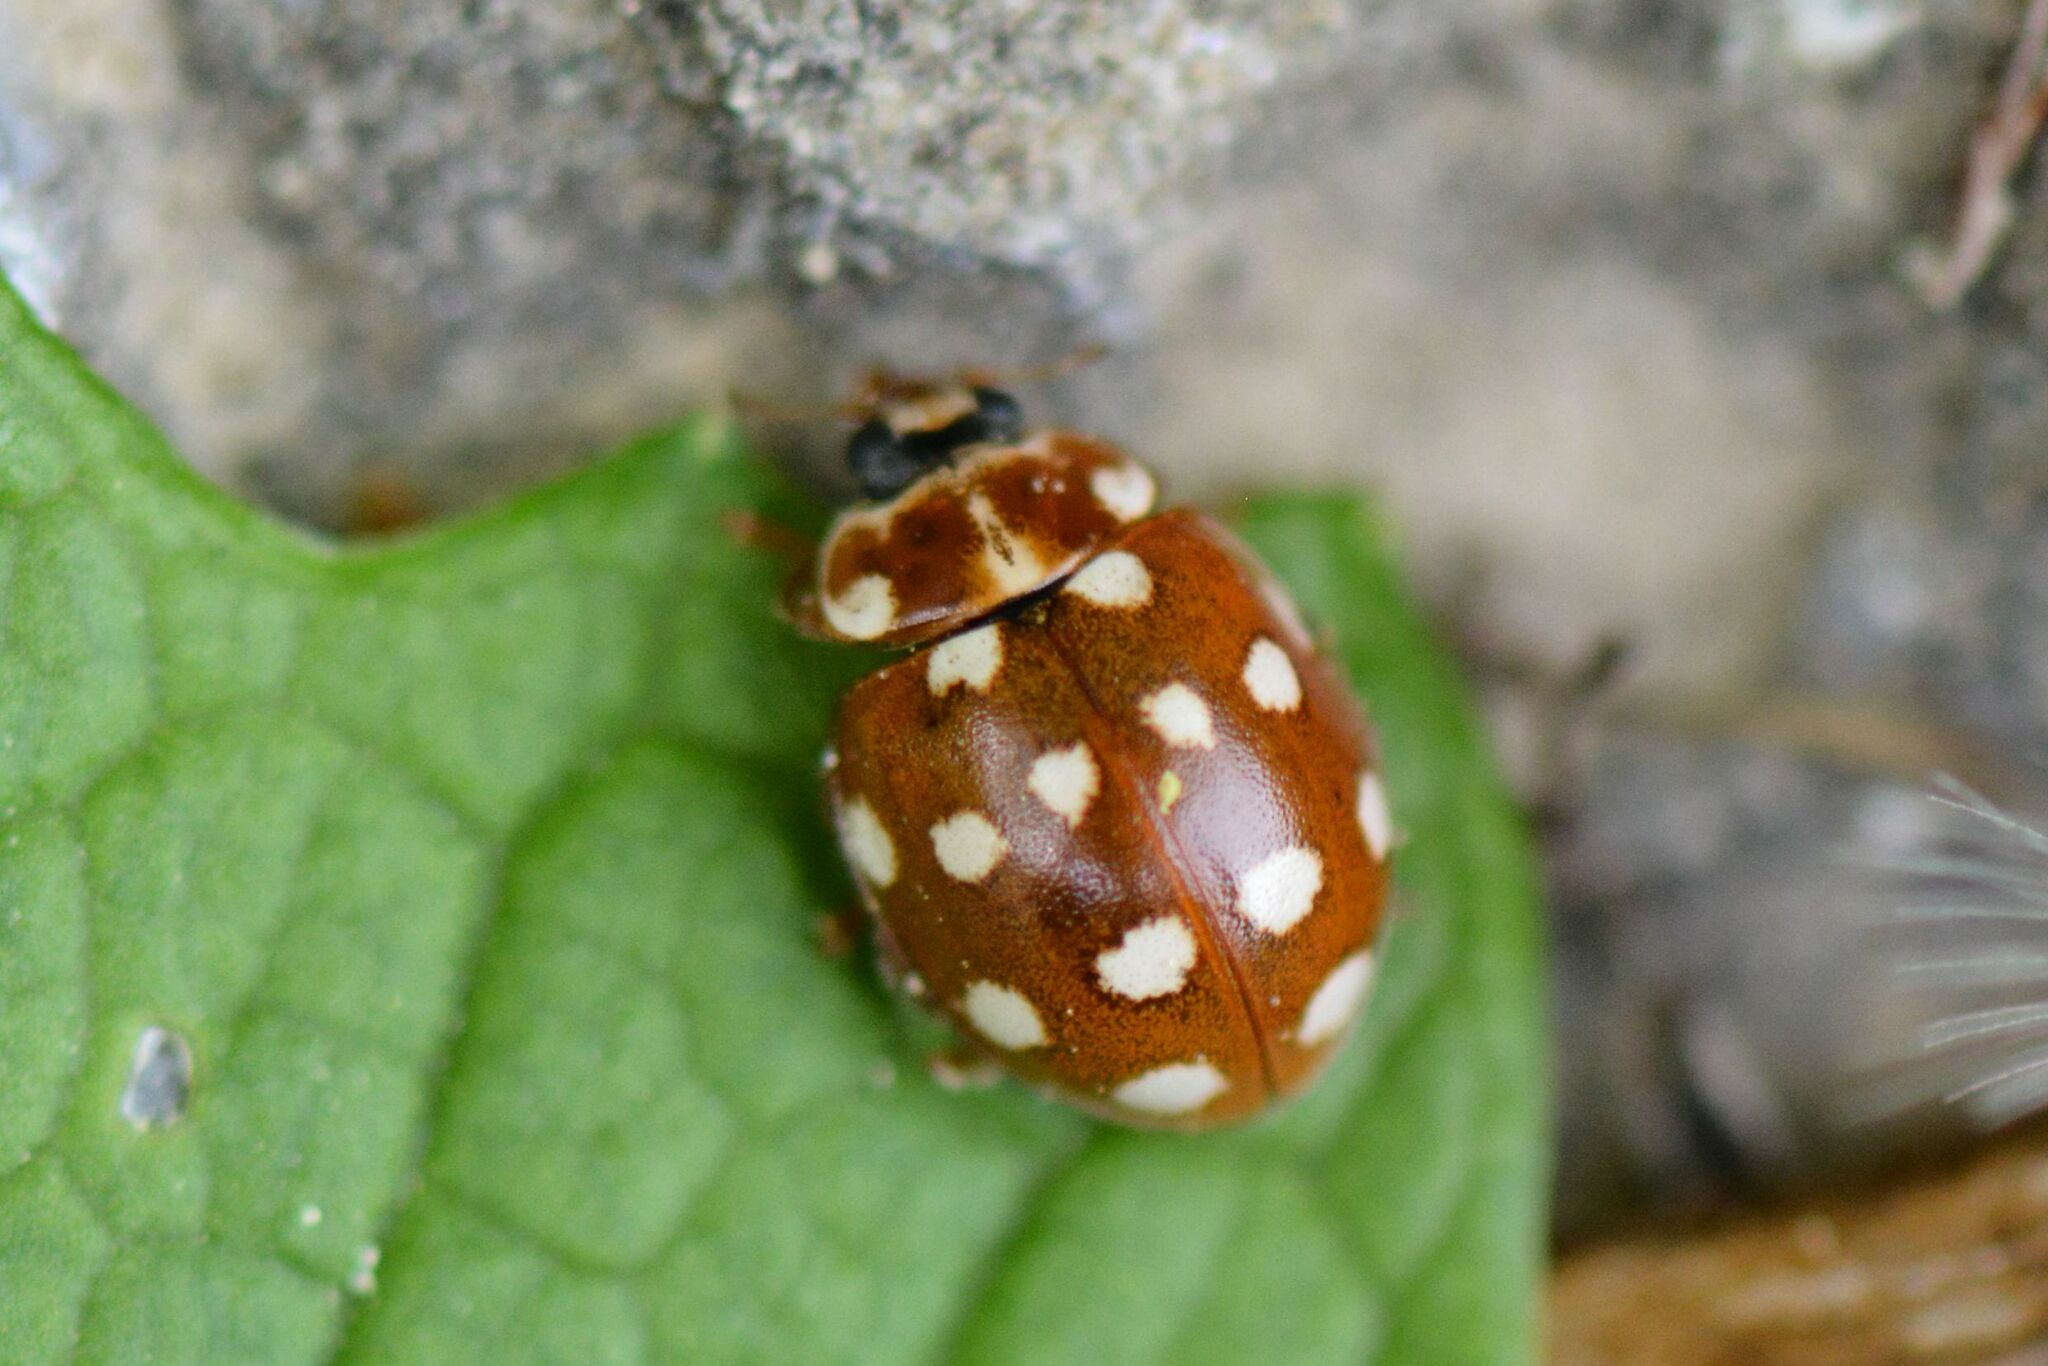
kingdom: Animalia
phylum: Arthropoda
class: Insecta
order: Coleoptera
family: Coccinellidae
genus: Calvia
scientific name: Calvia quatuordecimguttata
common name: Cream-spot ladybird
